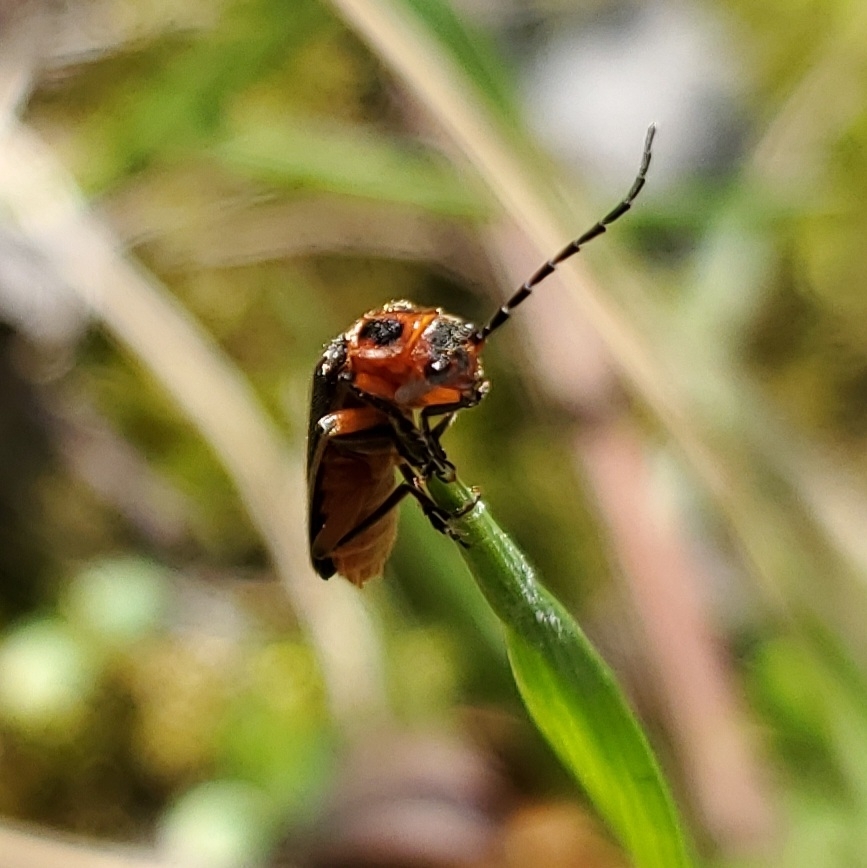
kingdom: Animalia
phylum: Arthropoda
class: Insecta
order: Coleoptera
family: Cantharidae
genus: Atalantycha
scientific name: Atalantycha bilineata
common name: Two-lined leatherwing
